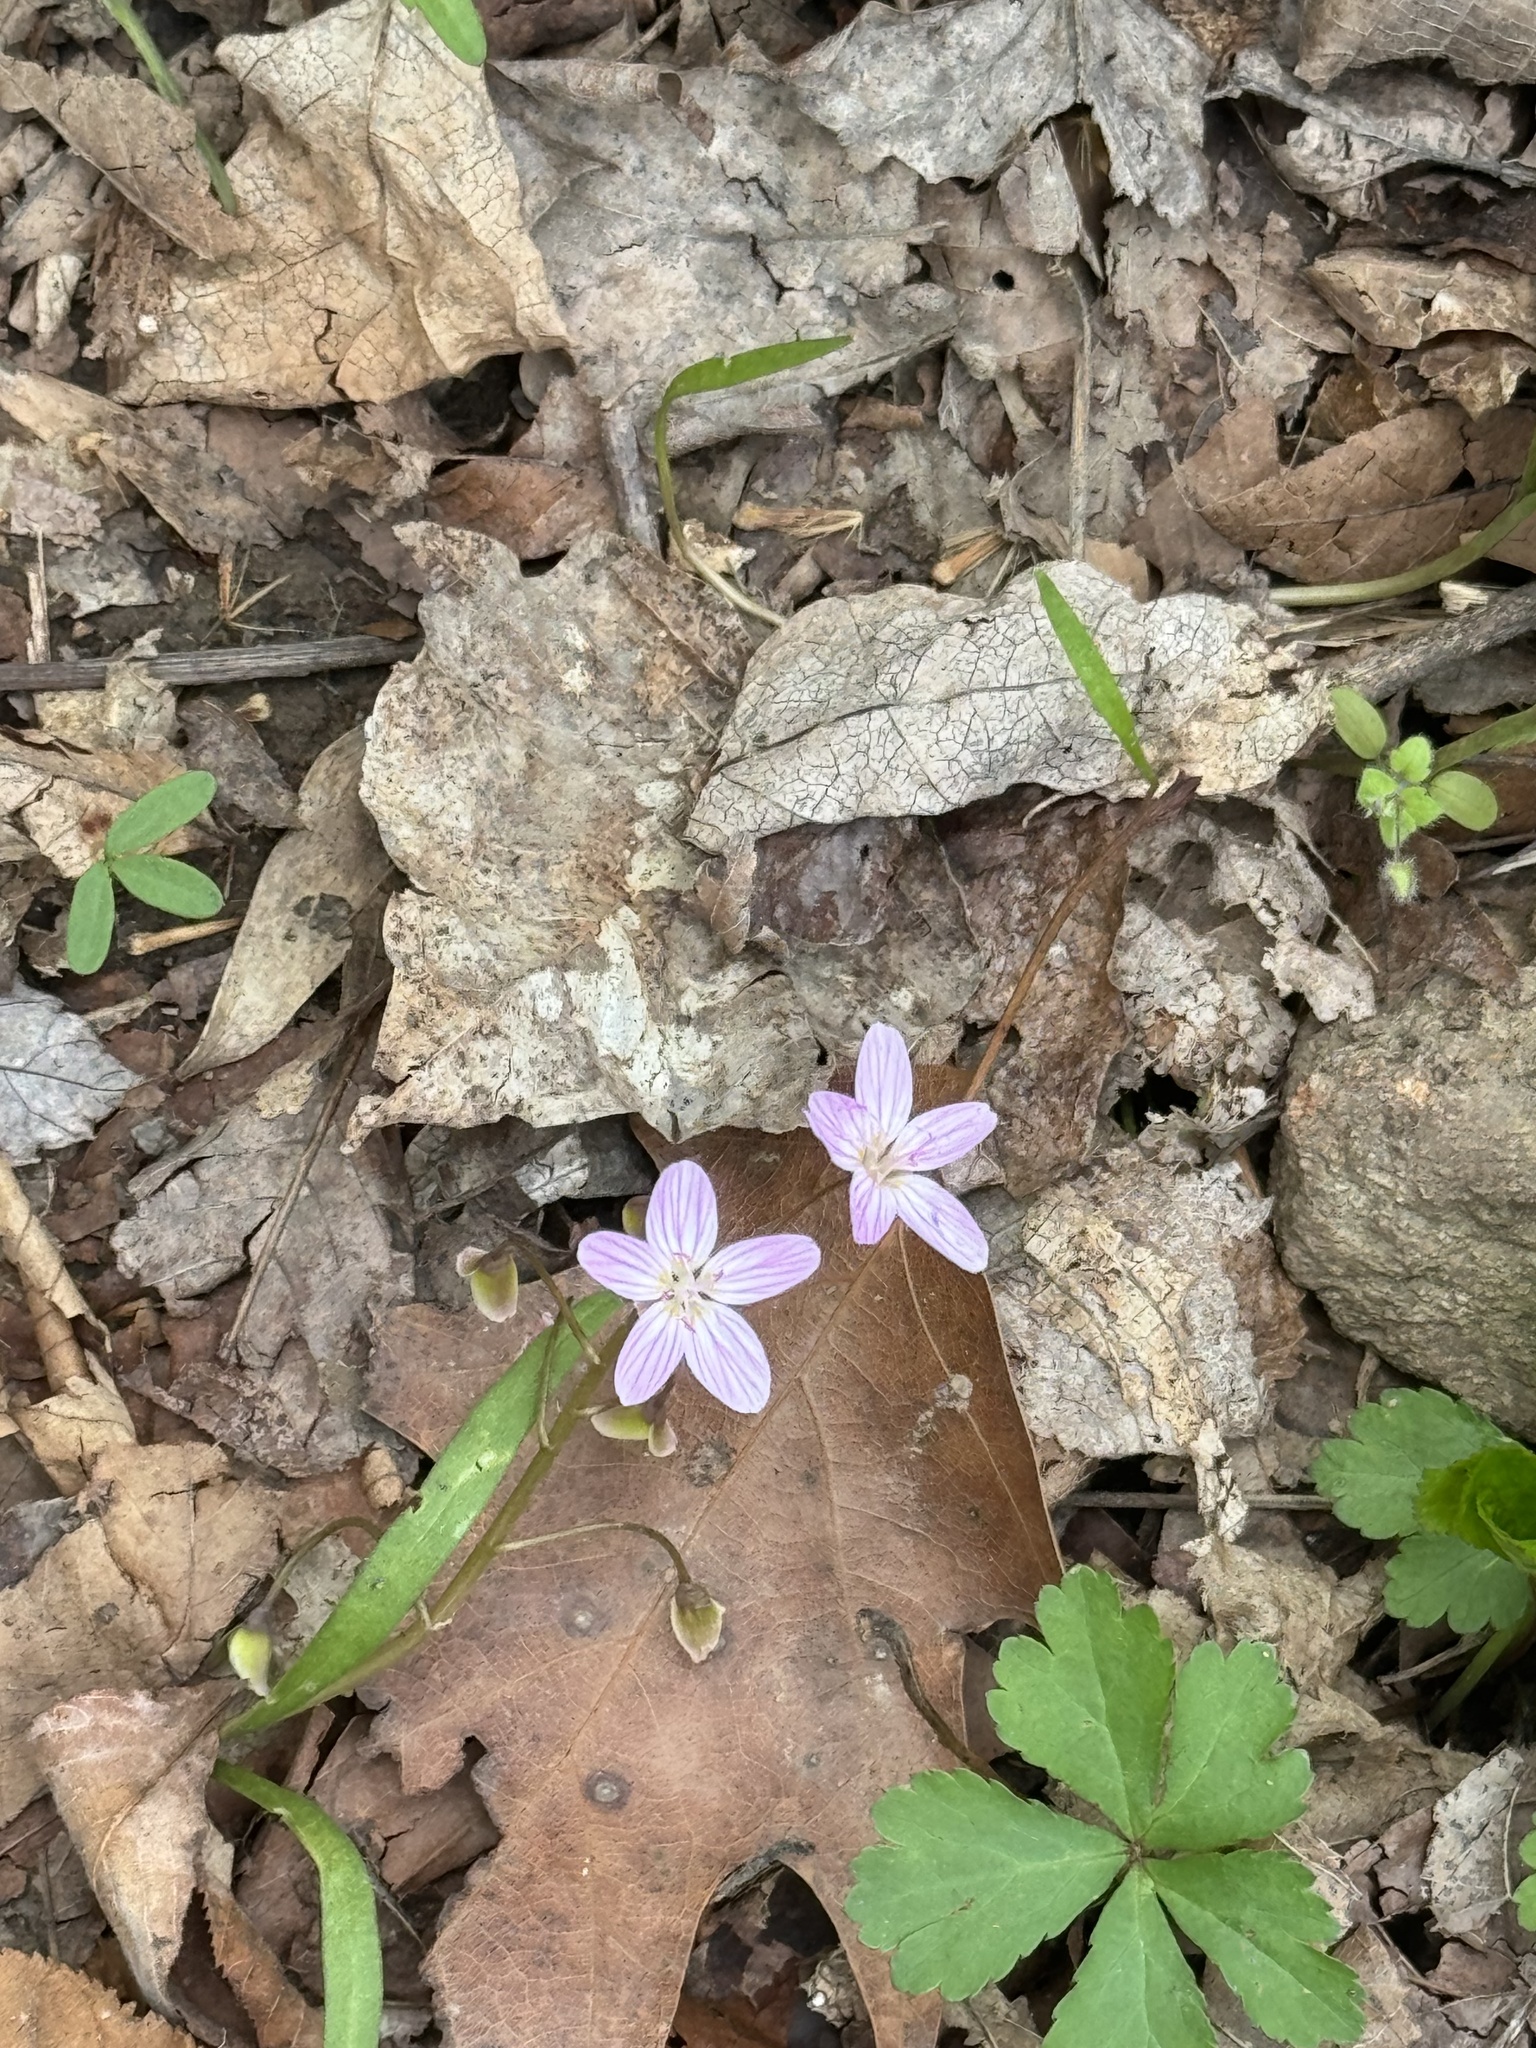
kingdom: Plantae
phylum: Tracheophyta
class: Magnoliopsida
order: Caryophyllales
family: Montiaceae
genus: Claytonia
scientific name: Claytonia virginica
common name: Virginia springbeauty
